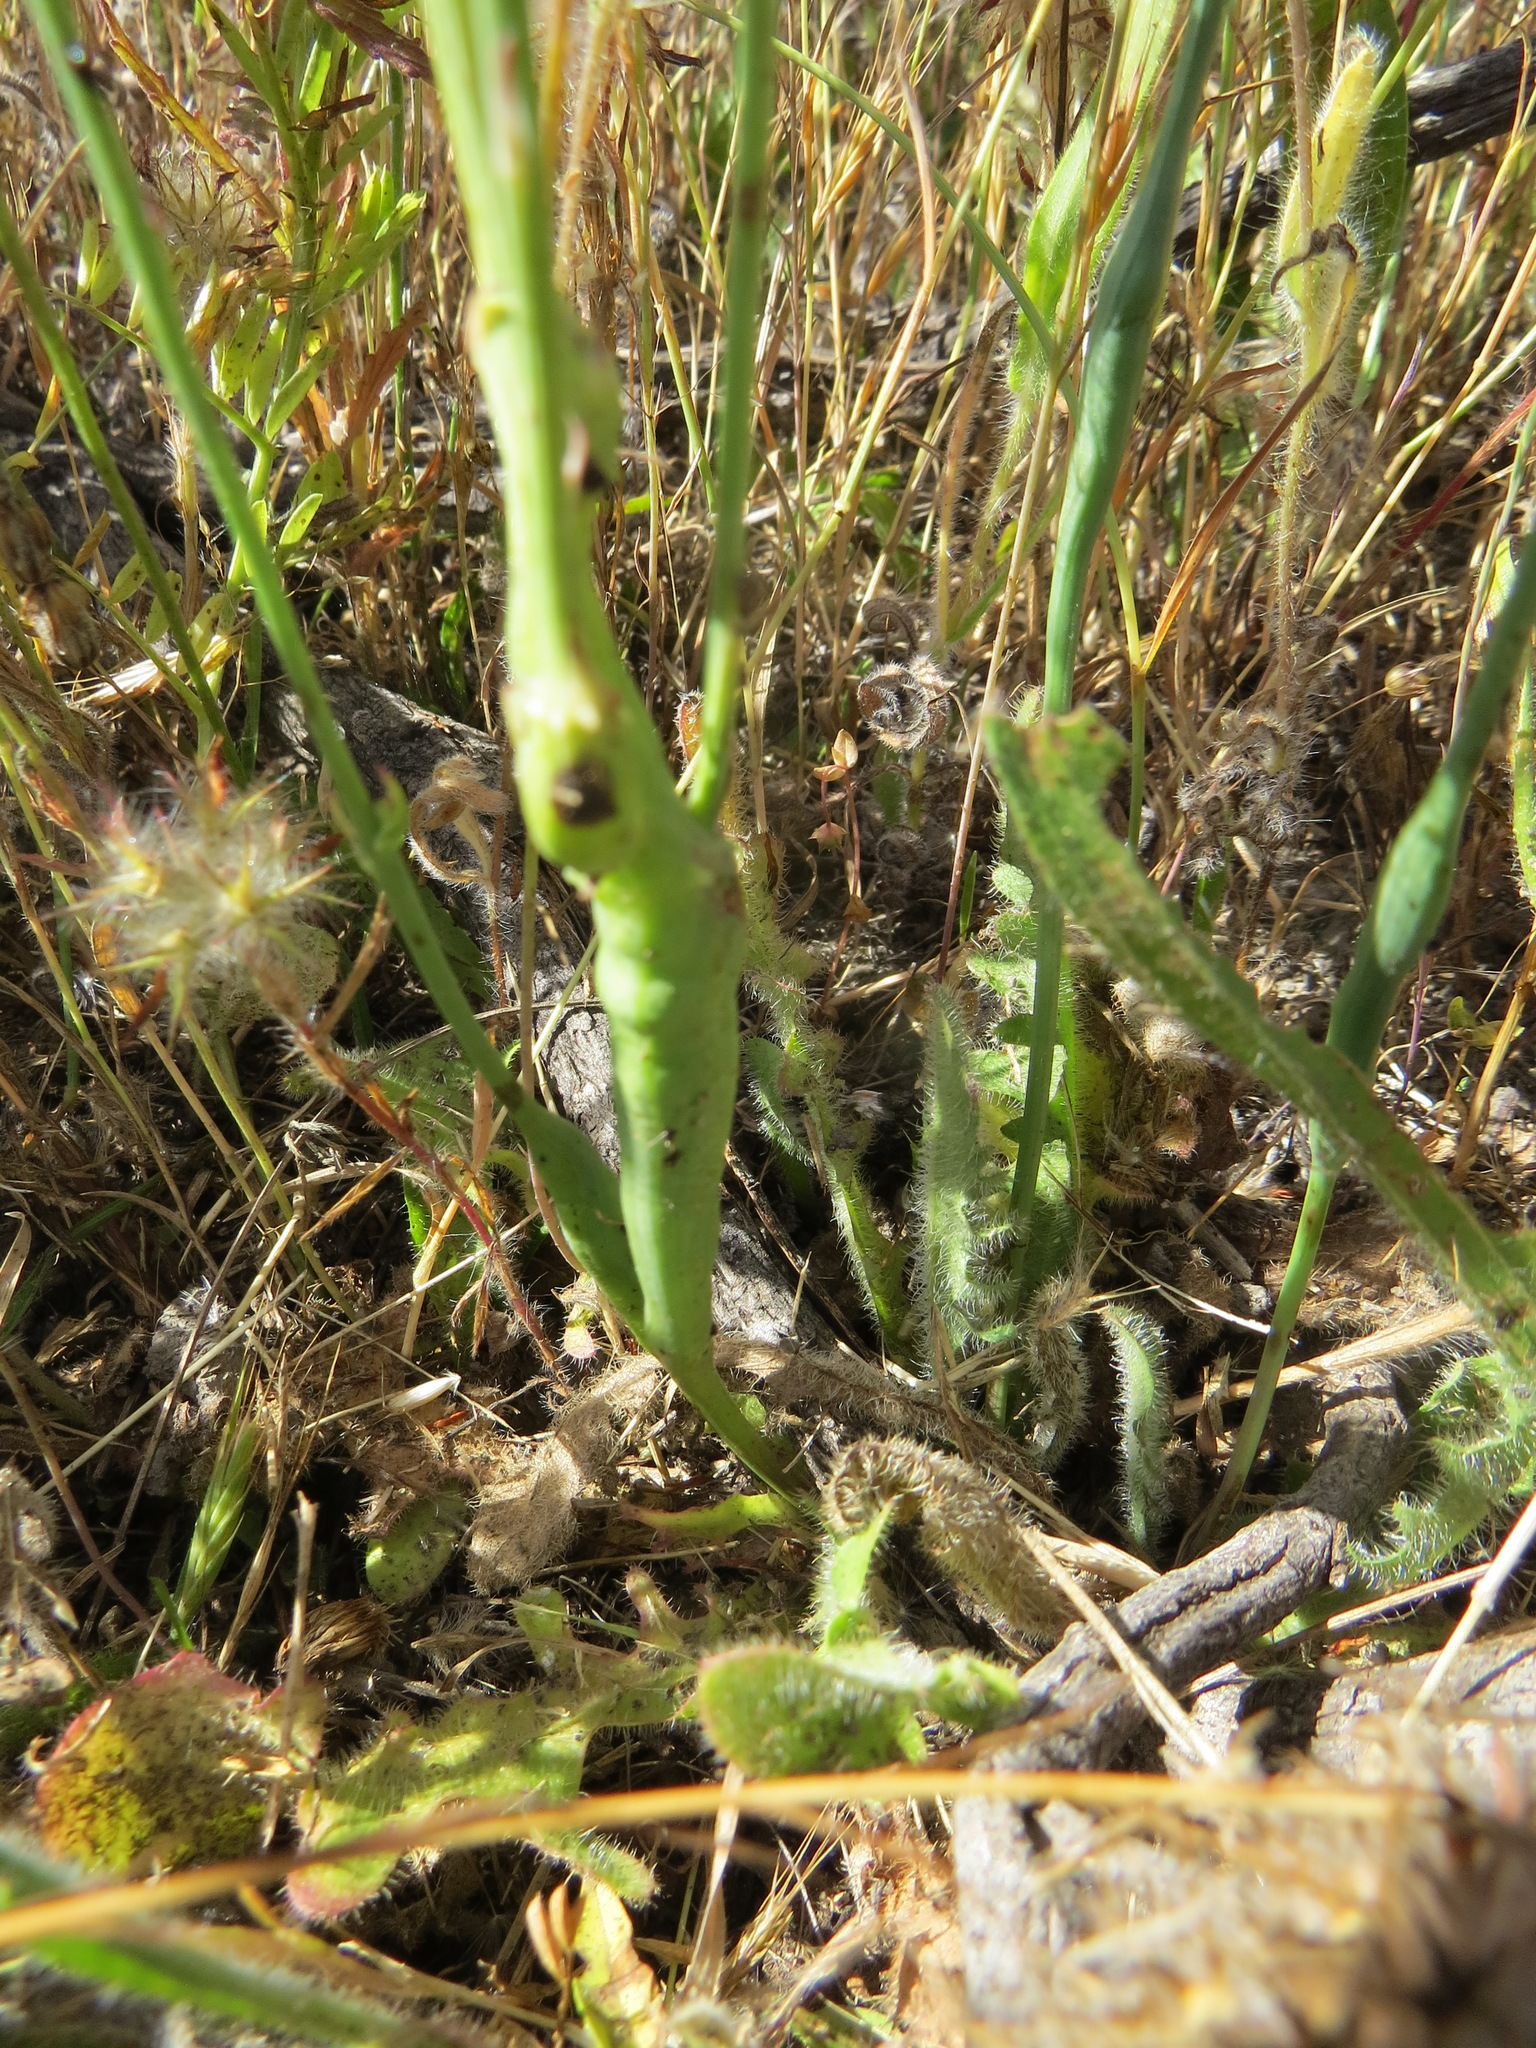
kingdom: Animalia
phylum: Arthropoda
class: Insecta
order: Hymenoptera
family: Cynipidae
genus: Phanacis
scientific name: Phanacis hypochoeridis
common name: Gall wasp
